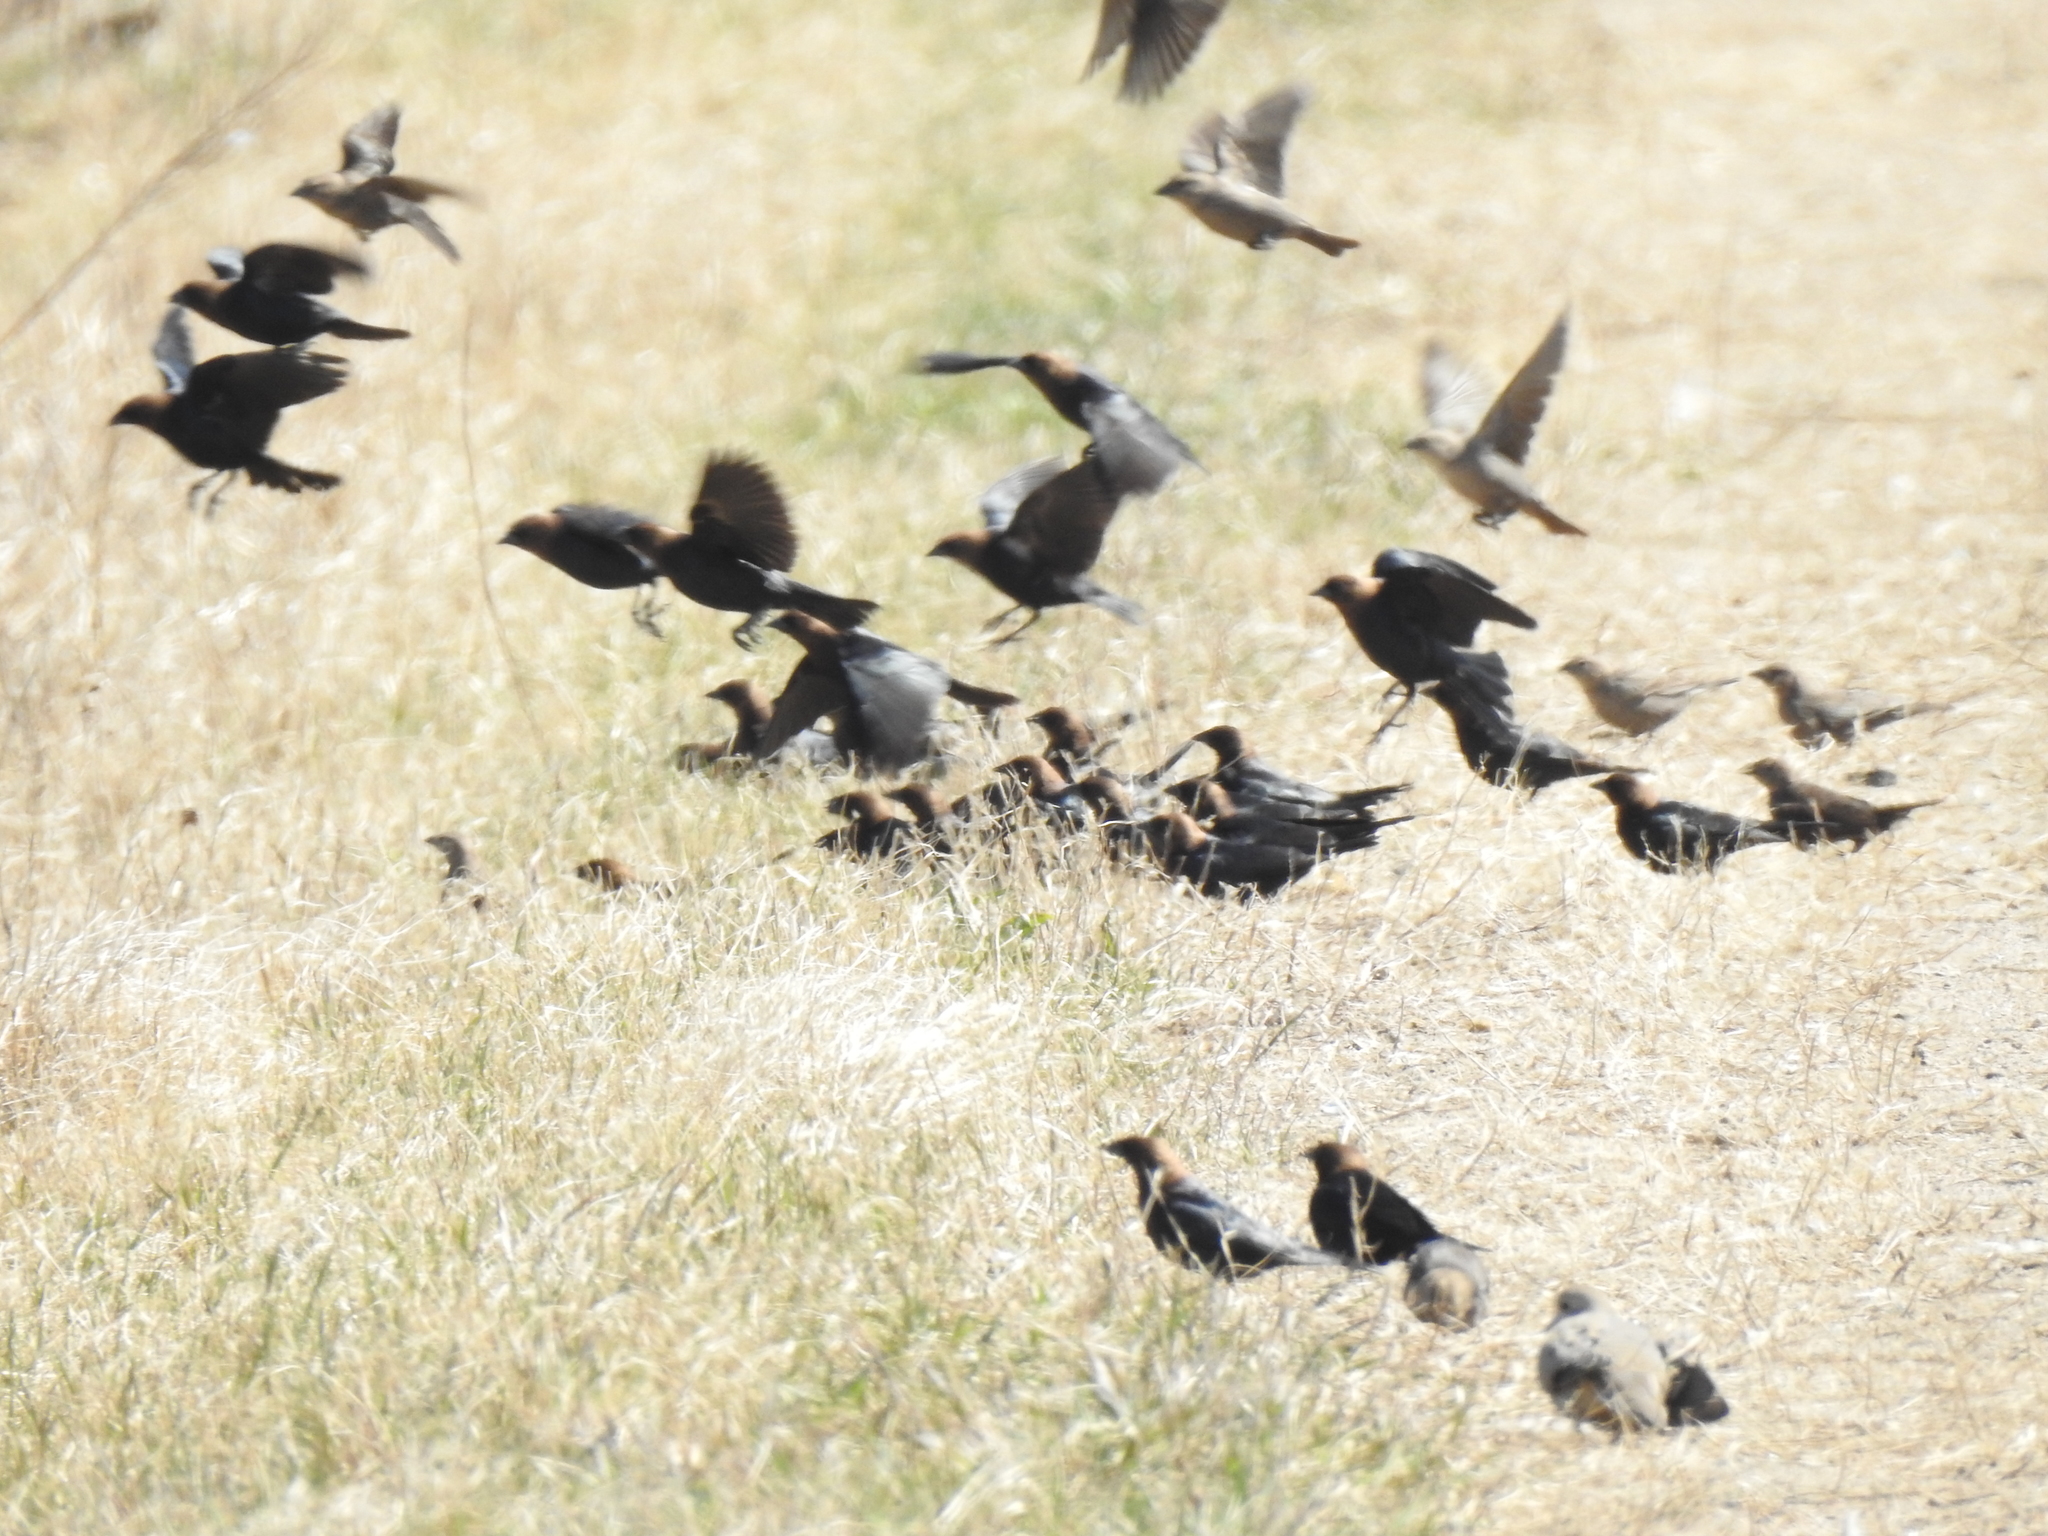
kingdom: Animalia
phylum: Chordata
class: Aves
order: Passeriformes
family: Icteridae
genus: Molothrus
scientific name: Molothrus ater
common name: Brown-headed cowbird
